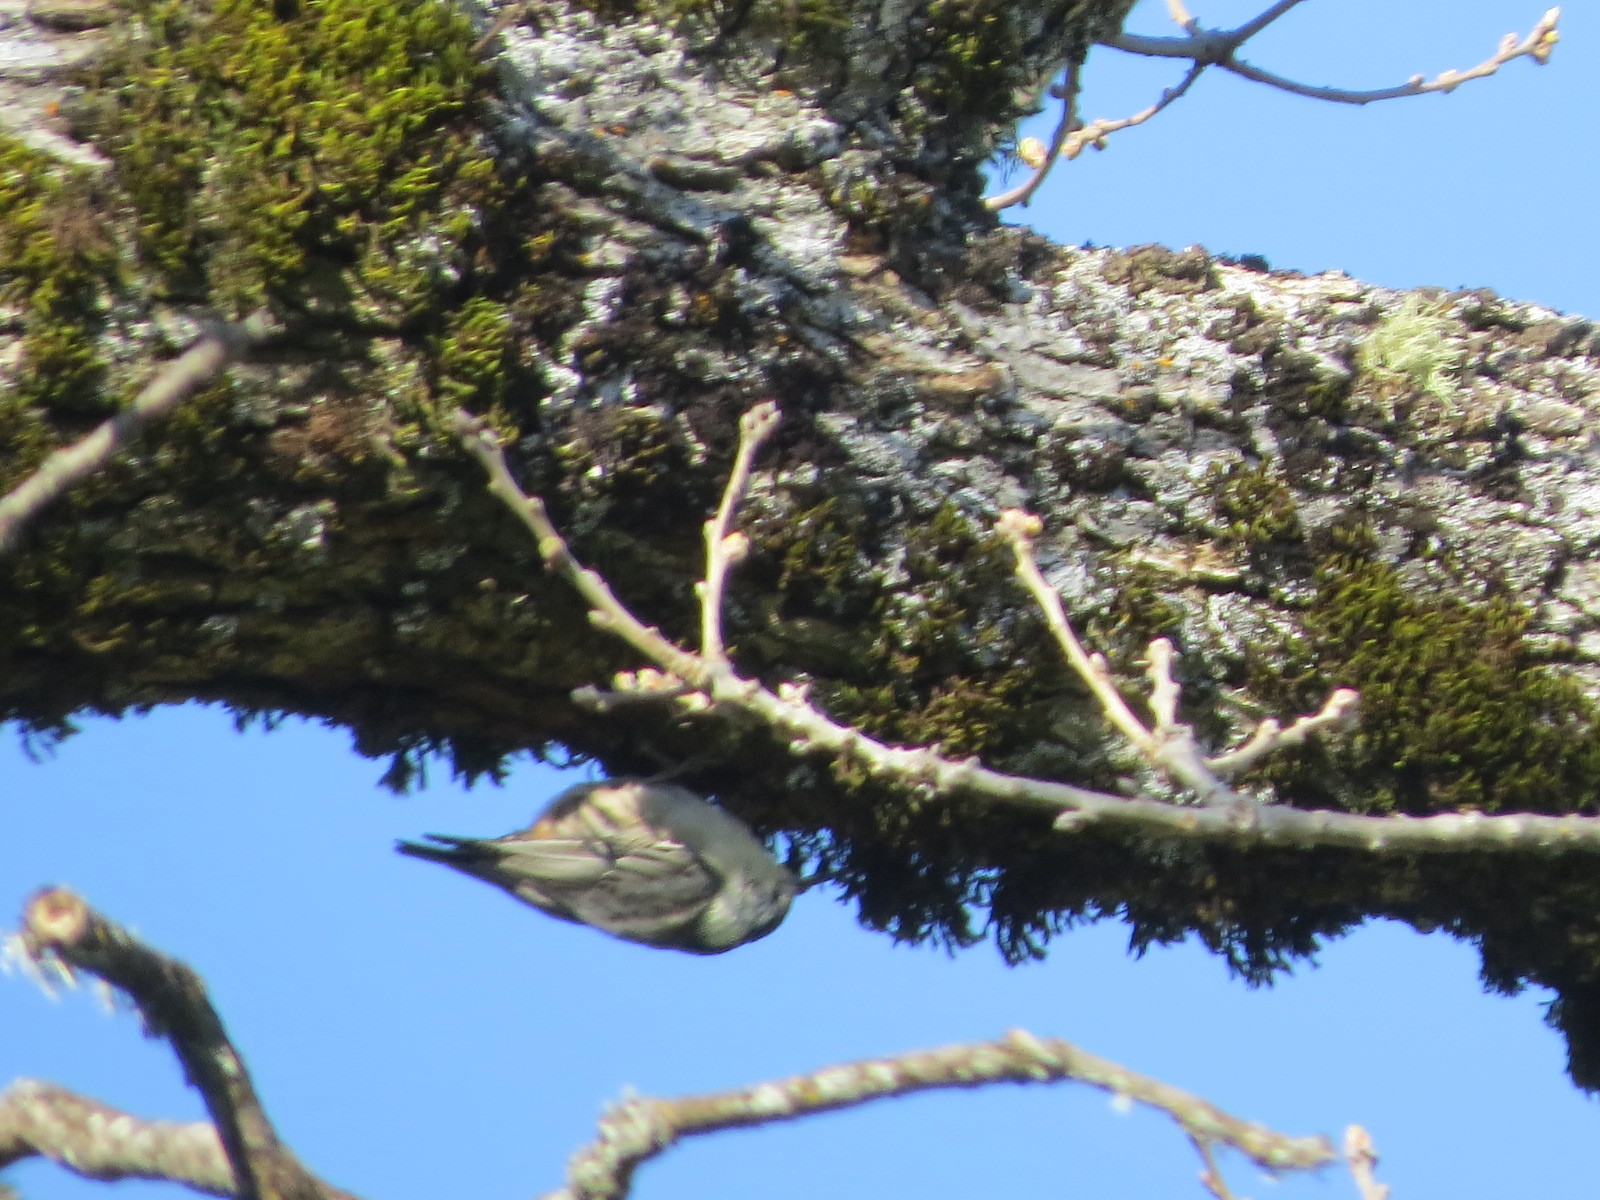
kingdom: Animalia
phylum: Chordata
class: Aves
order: Passeriformes
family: Sittidae
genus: Sitta
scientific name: Sitta carolinensis
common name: White-breasted nuthatch
